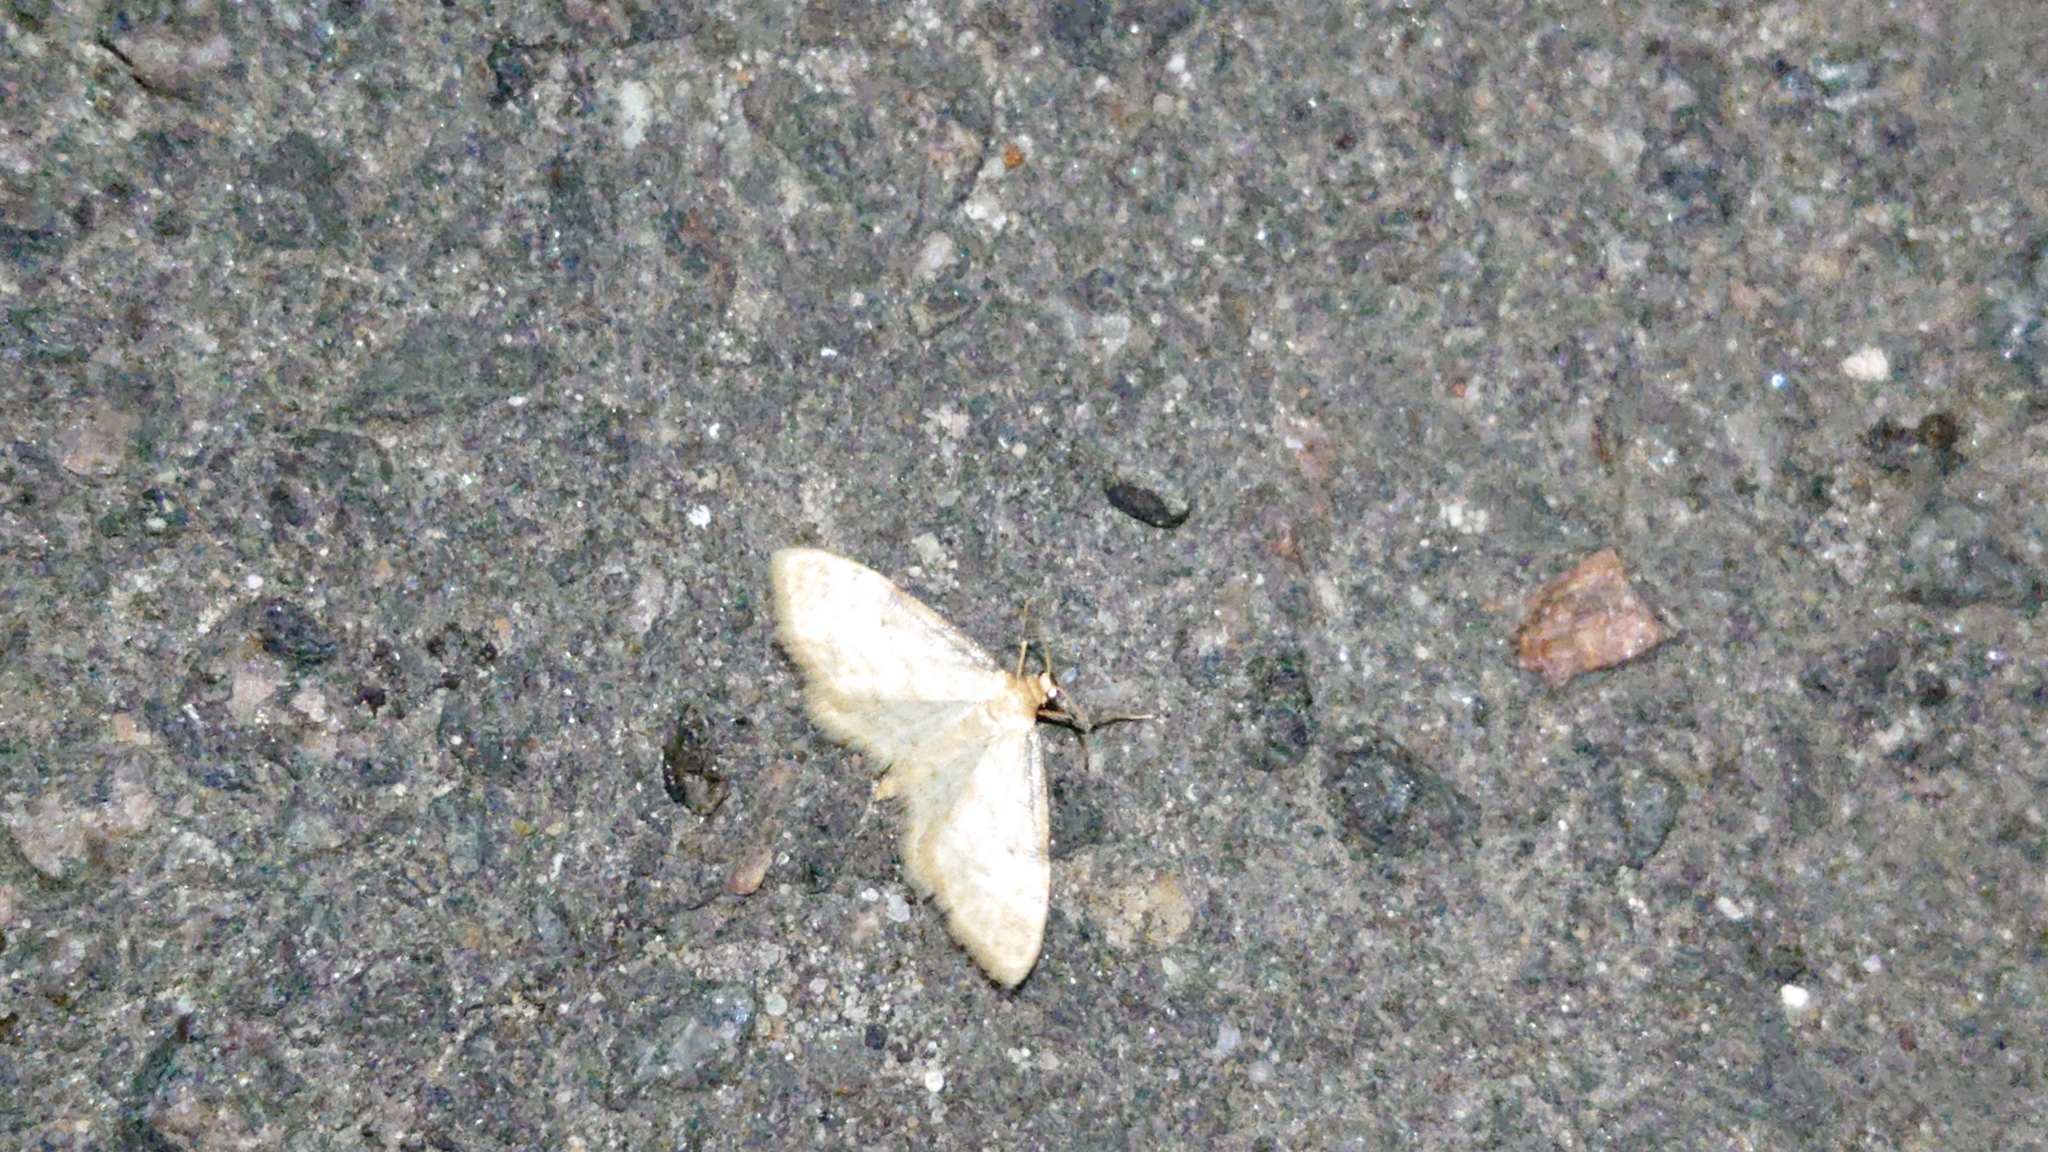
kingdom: Animalia
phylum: Arthropoda
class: Insecta
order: Lepidoptera
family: Geometridae
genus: Idaea
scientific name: Idaea fuscovenosa
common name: Dwarf cream wave
